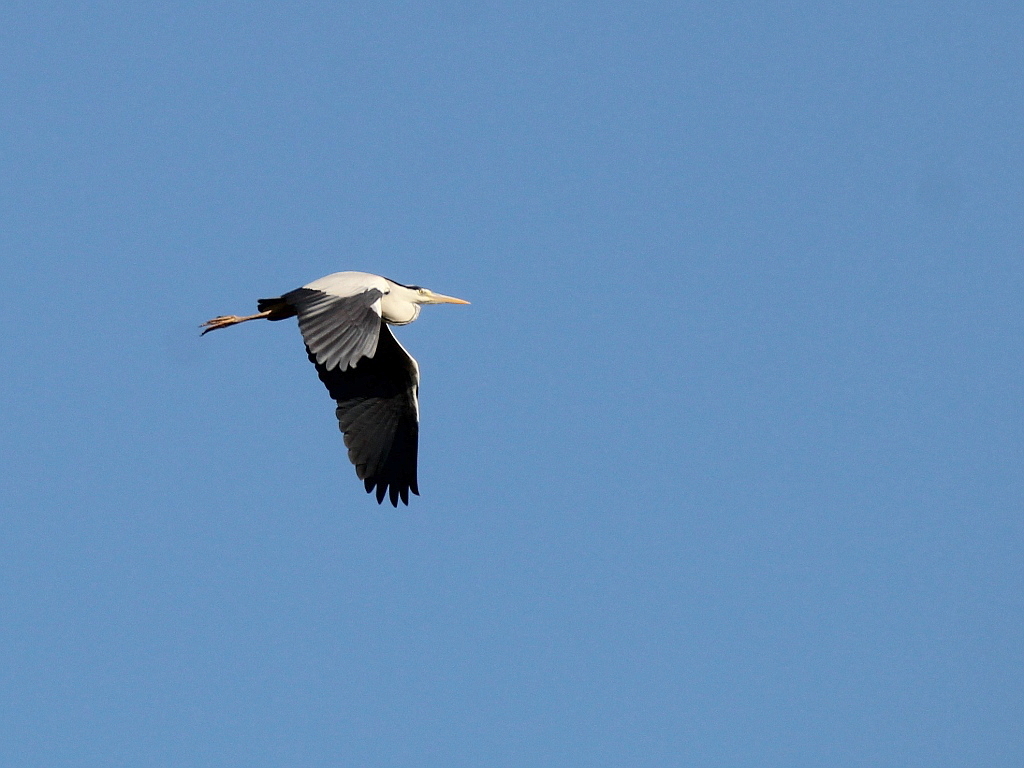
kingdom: Animalia
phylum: Chordata
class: Aves
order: Pelecaniformes
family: Ardeidae
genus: Ardea
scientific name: Ardea cinerea
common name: Grey heron
